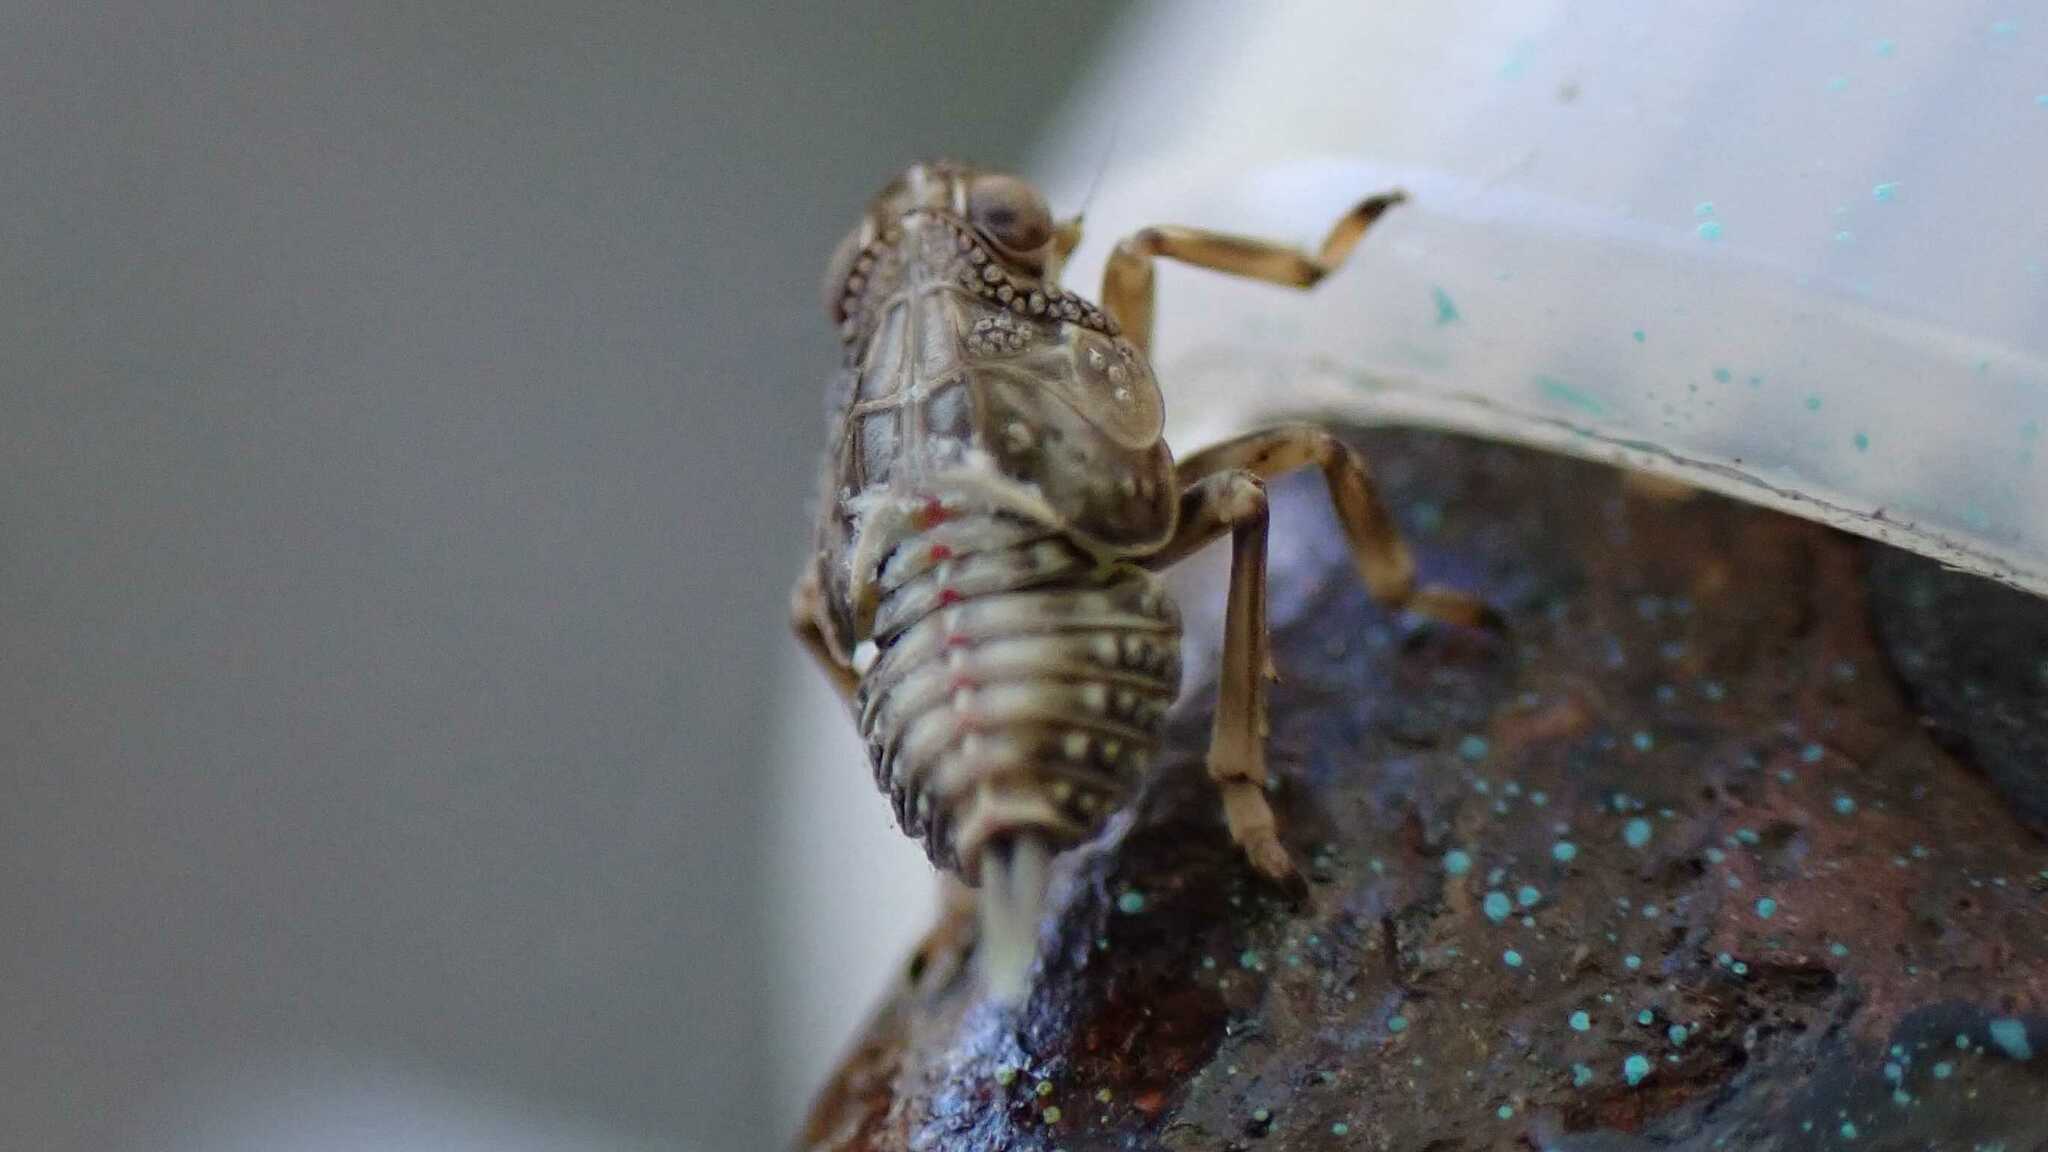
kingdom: Animalia
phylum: Arthropoda
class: Insecta
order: Hemiptera
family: Issidae
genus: Issus
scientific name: Issus
